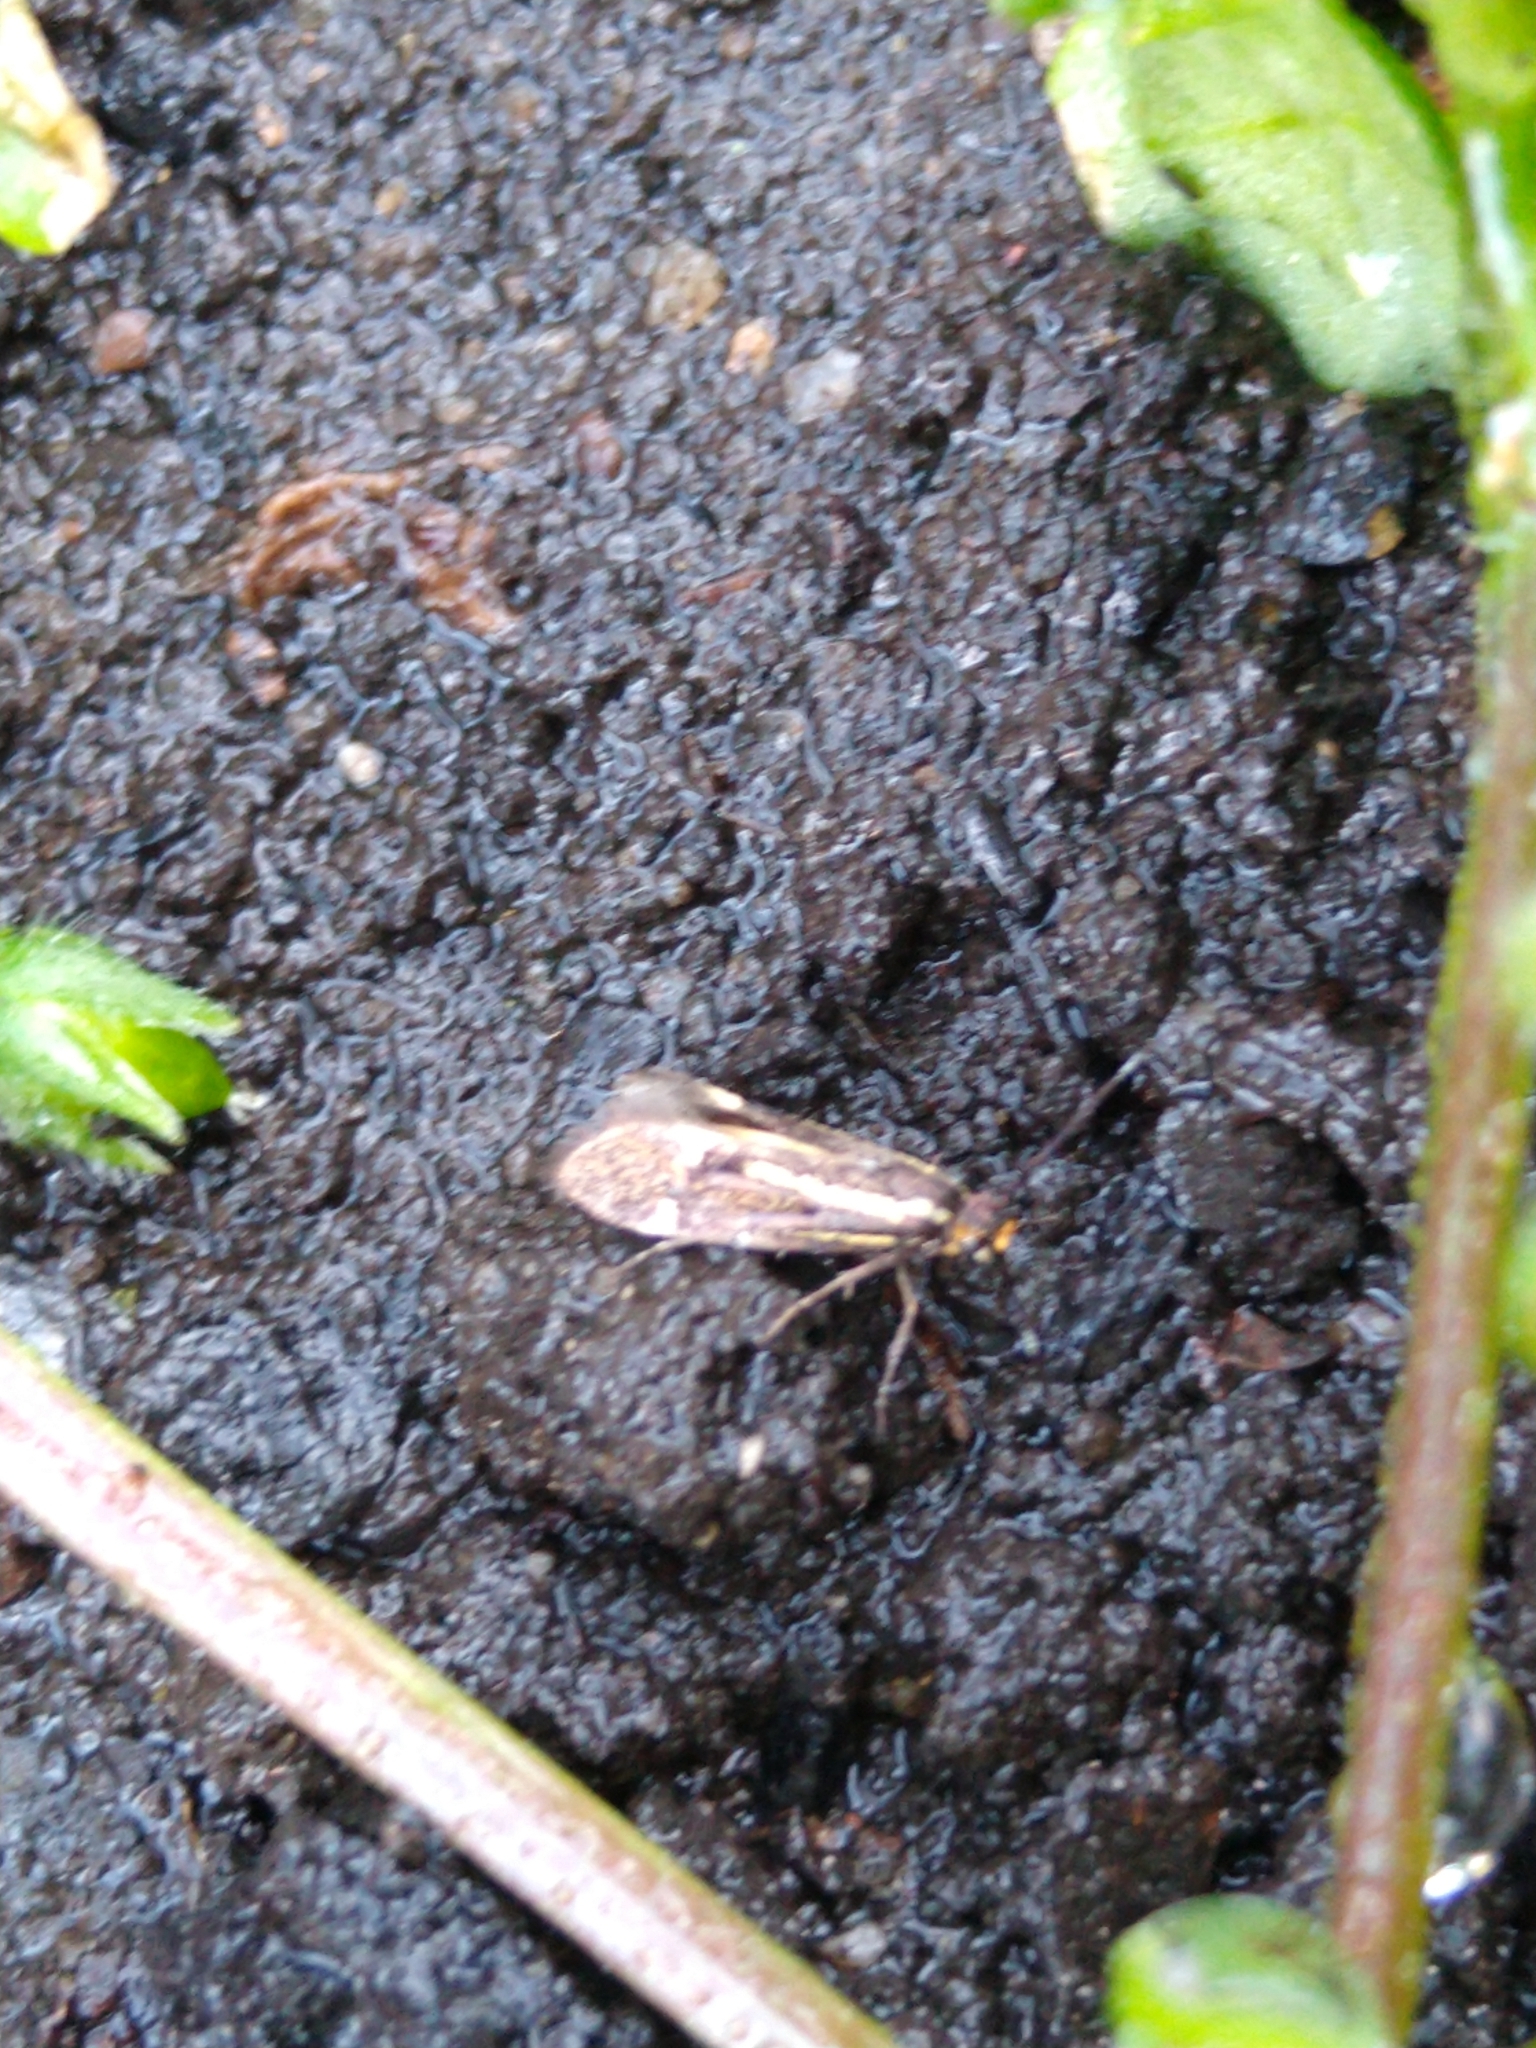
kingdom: Animalia
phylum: Arthropoda
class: Insecta
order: Lepidoptera
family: Oecophoridae
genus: Dafa
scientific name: Dafa Esperia sulphurella
